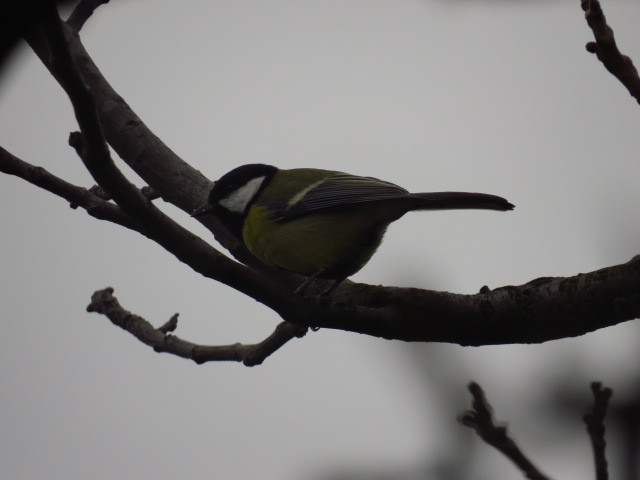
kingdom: Animalia
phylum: Chordata
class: Aves
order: Passeriformes
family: Paridae
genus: Parus
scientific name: Parus major
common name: Great tit
